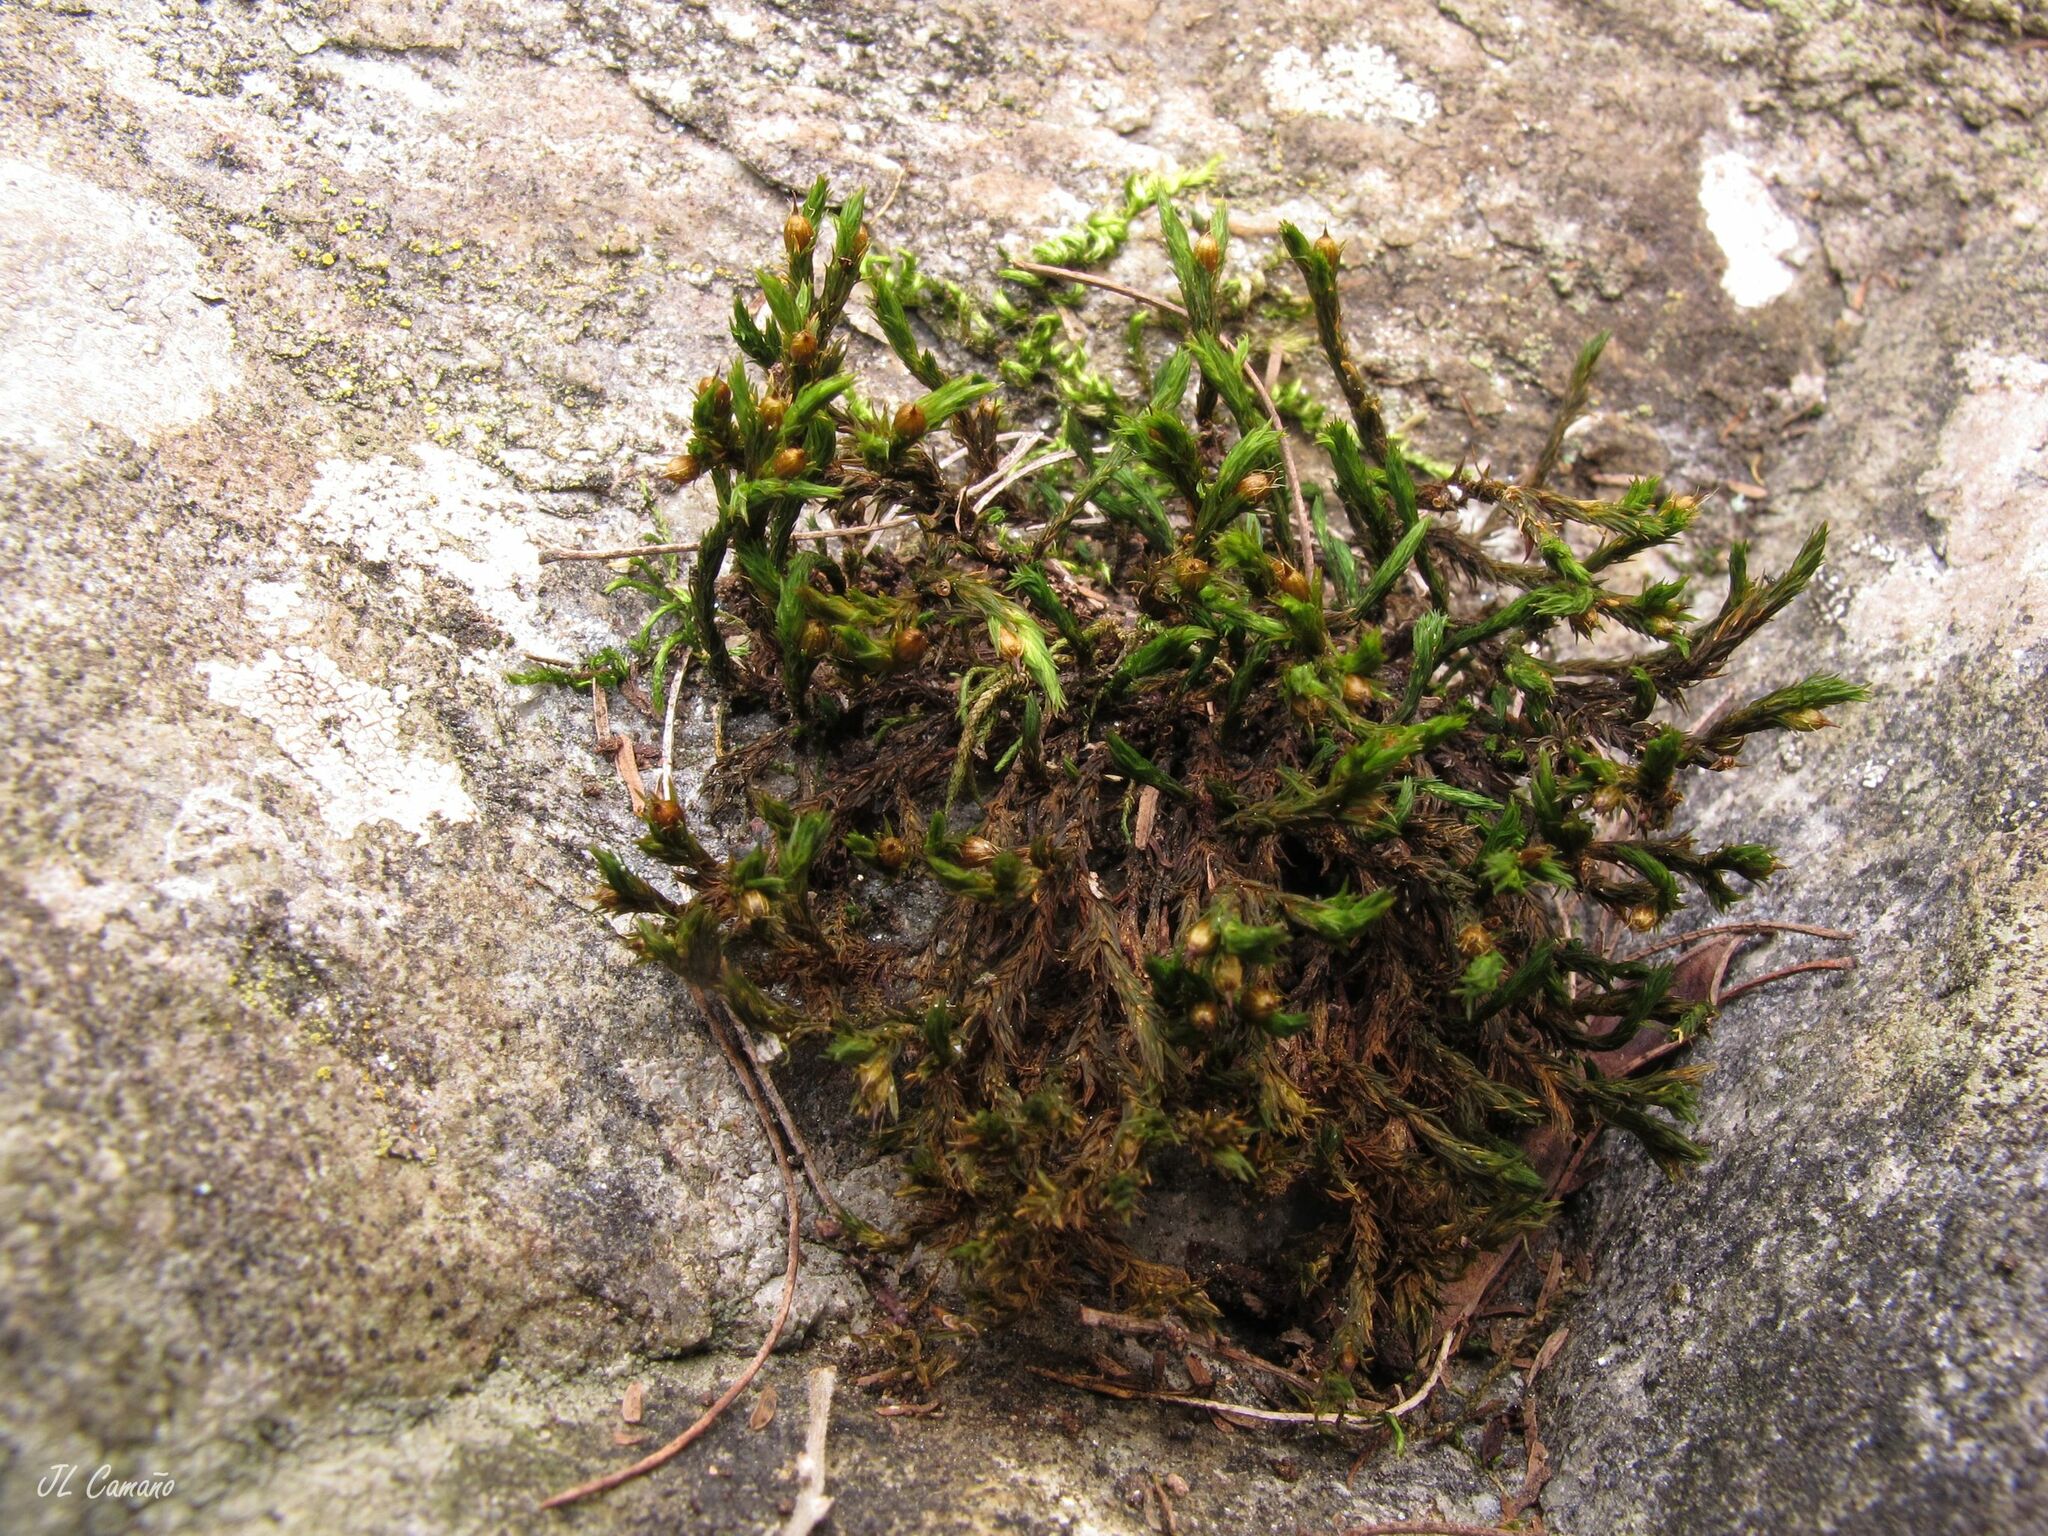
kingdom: Plantae
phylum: Bryophyta
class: Bryopsida
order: Orthotrichales
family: Orthotrichaceae
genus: Lewinskya
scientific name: Lewinskya rupestris
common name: Rock bristle-moss
